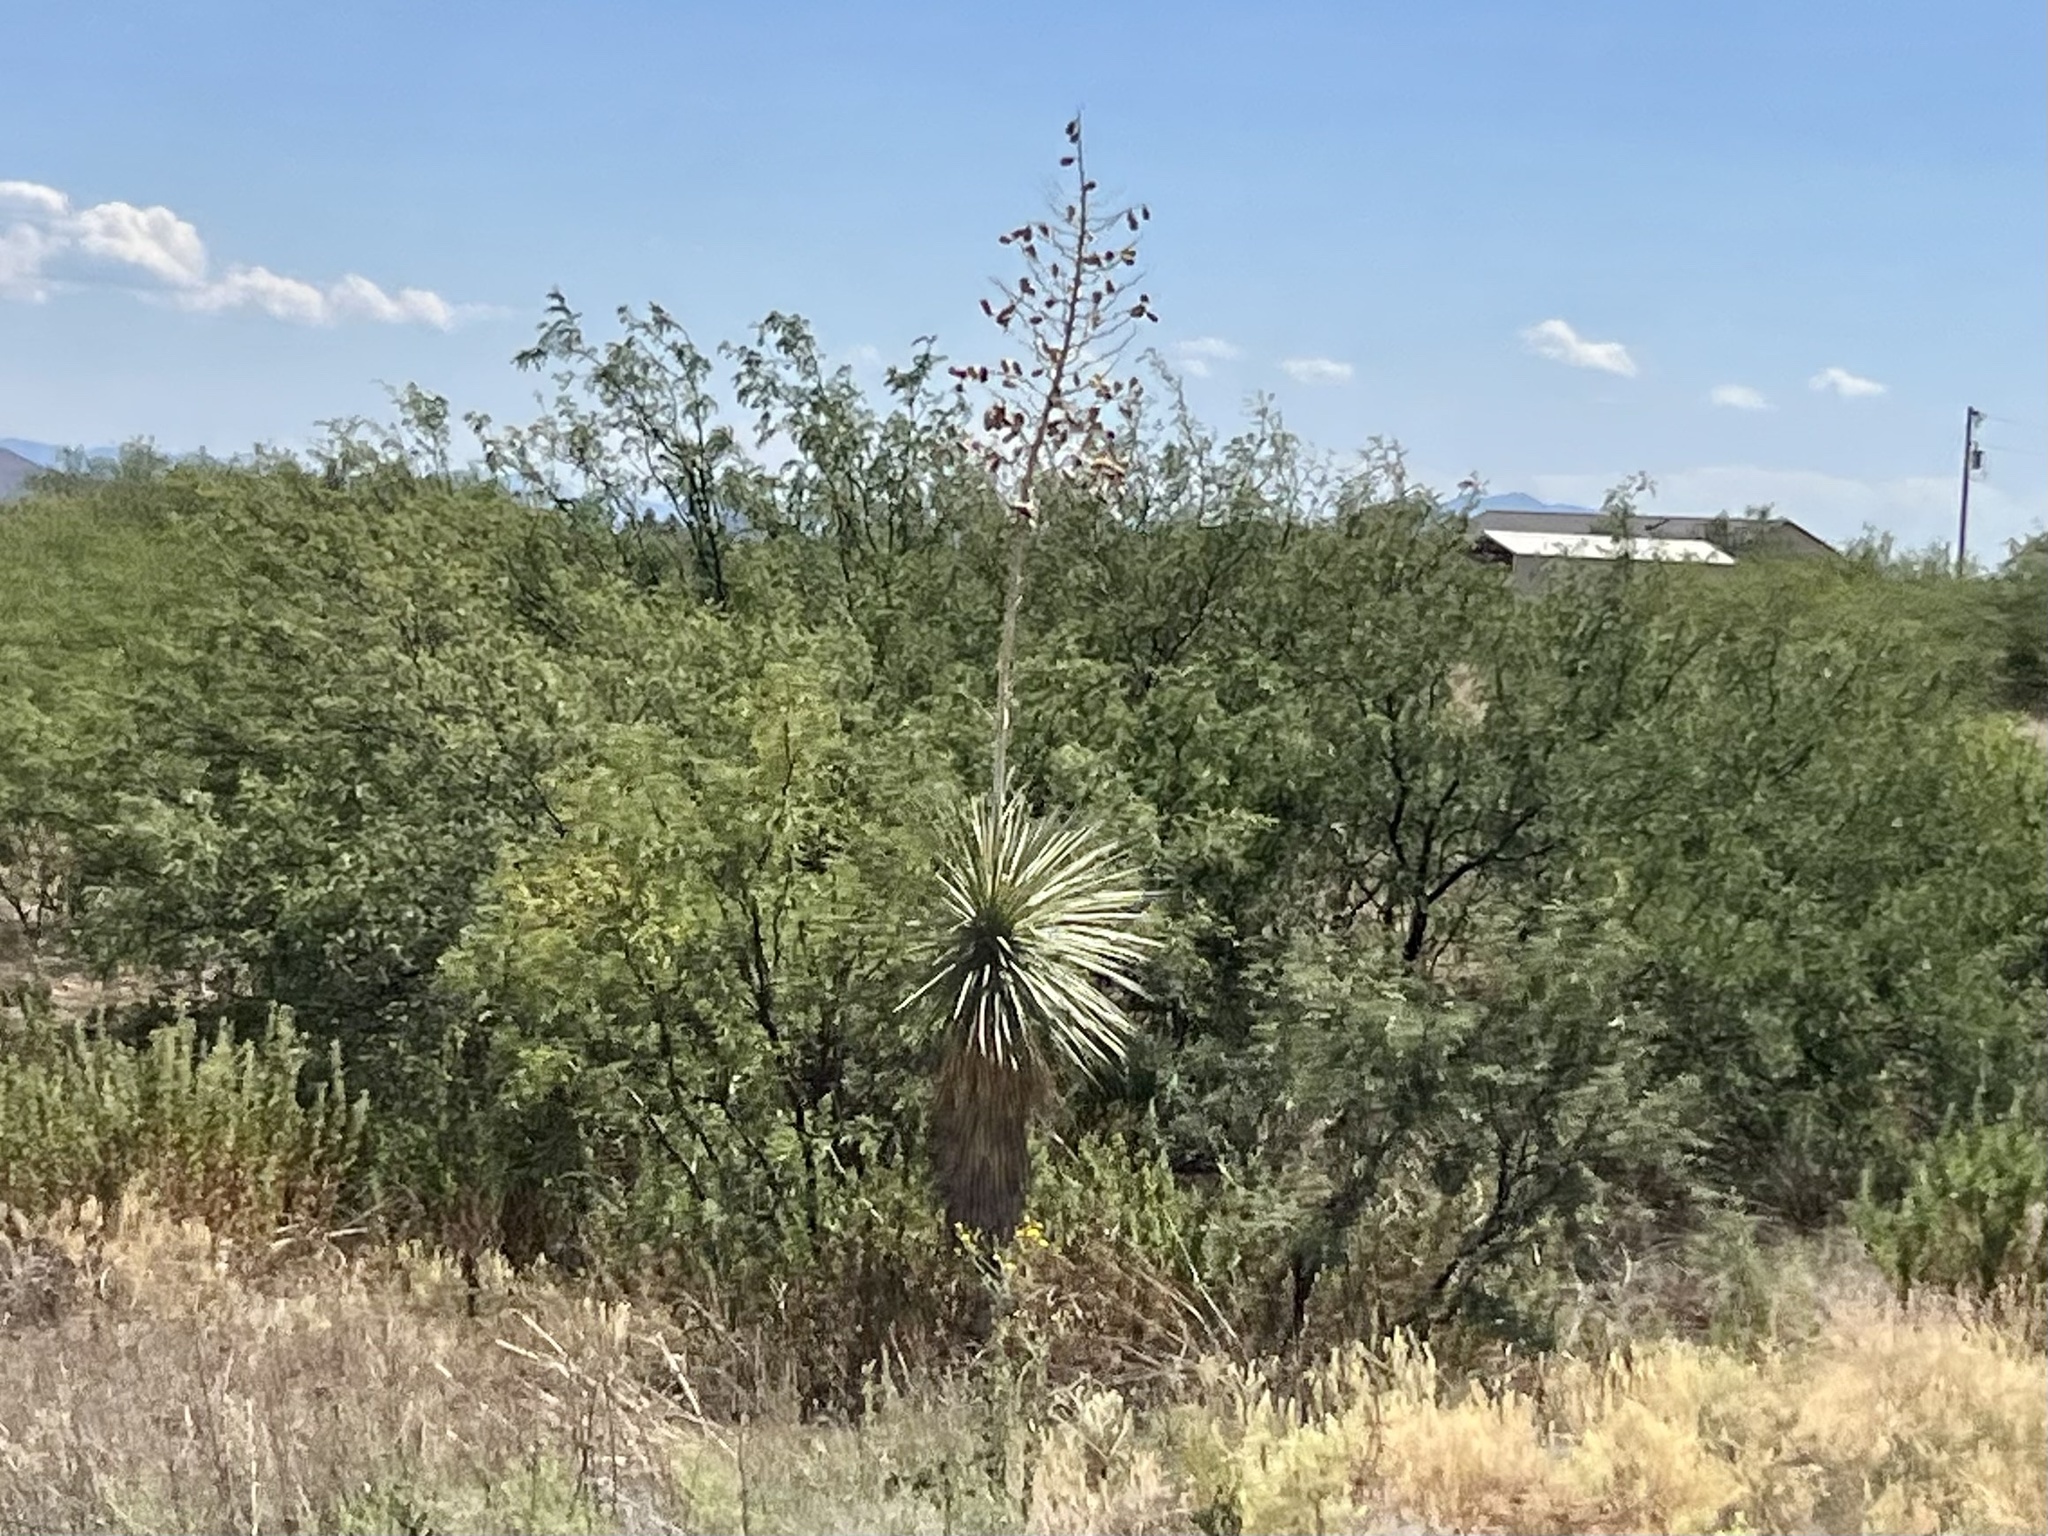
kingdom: Plantae
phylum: Tracheophyta
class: Liliopsida
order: Asparagales
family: Asparagaceae
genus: Yucca
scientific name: Yucca elata
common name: Palmella
